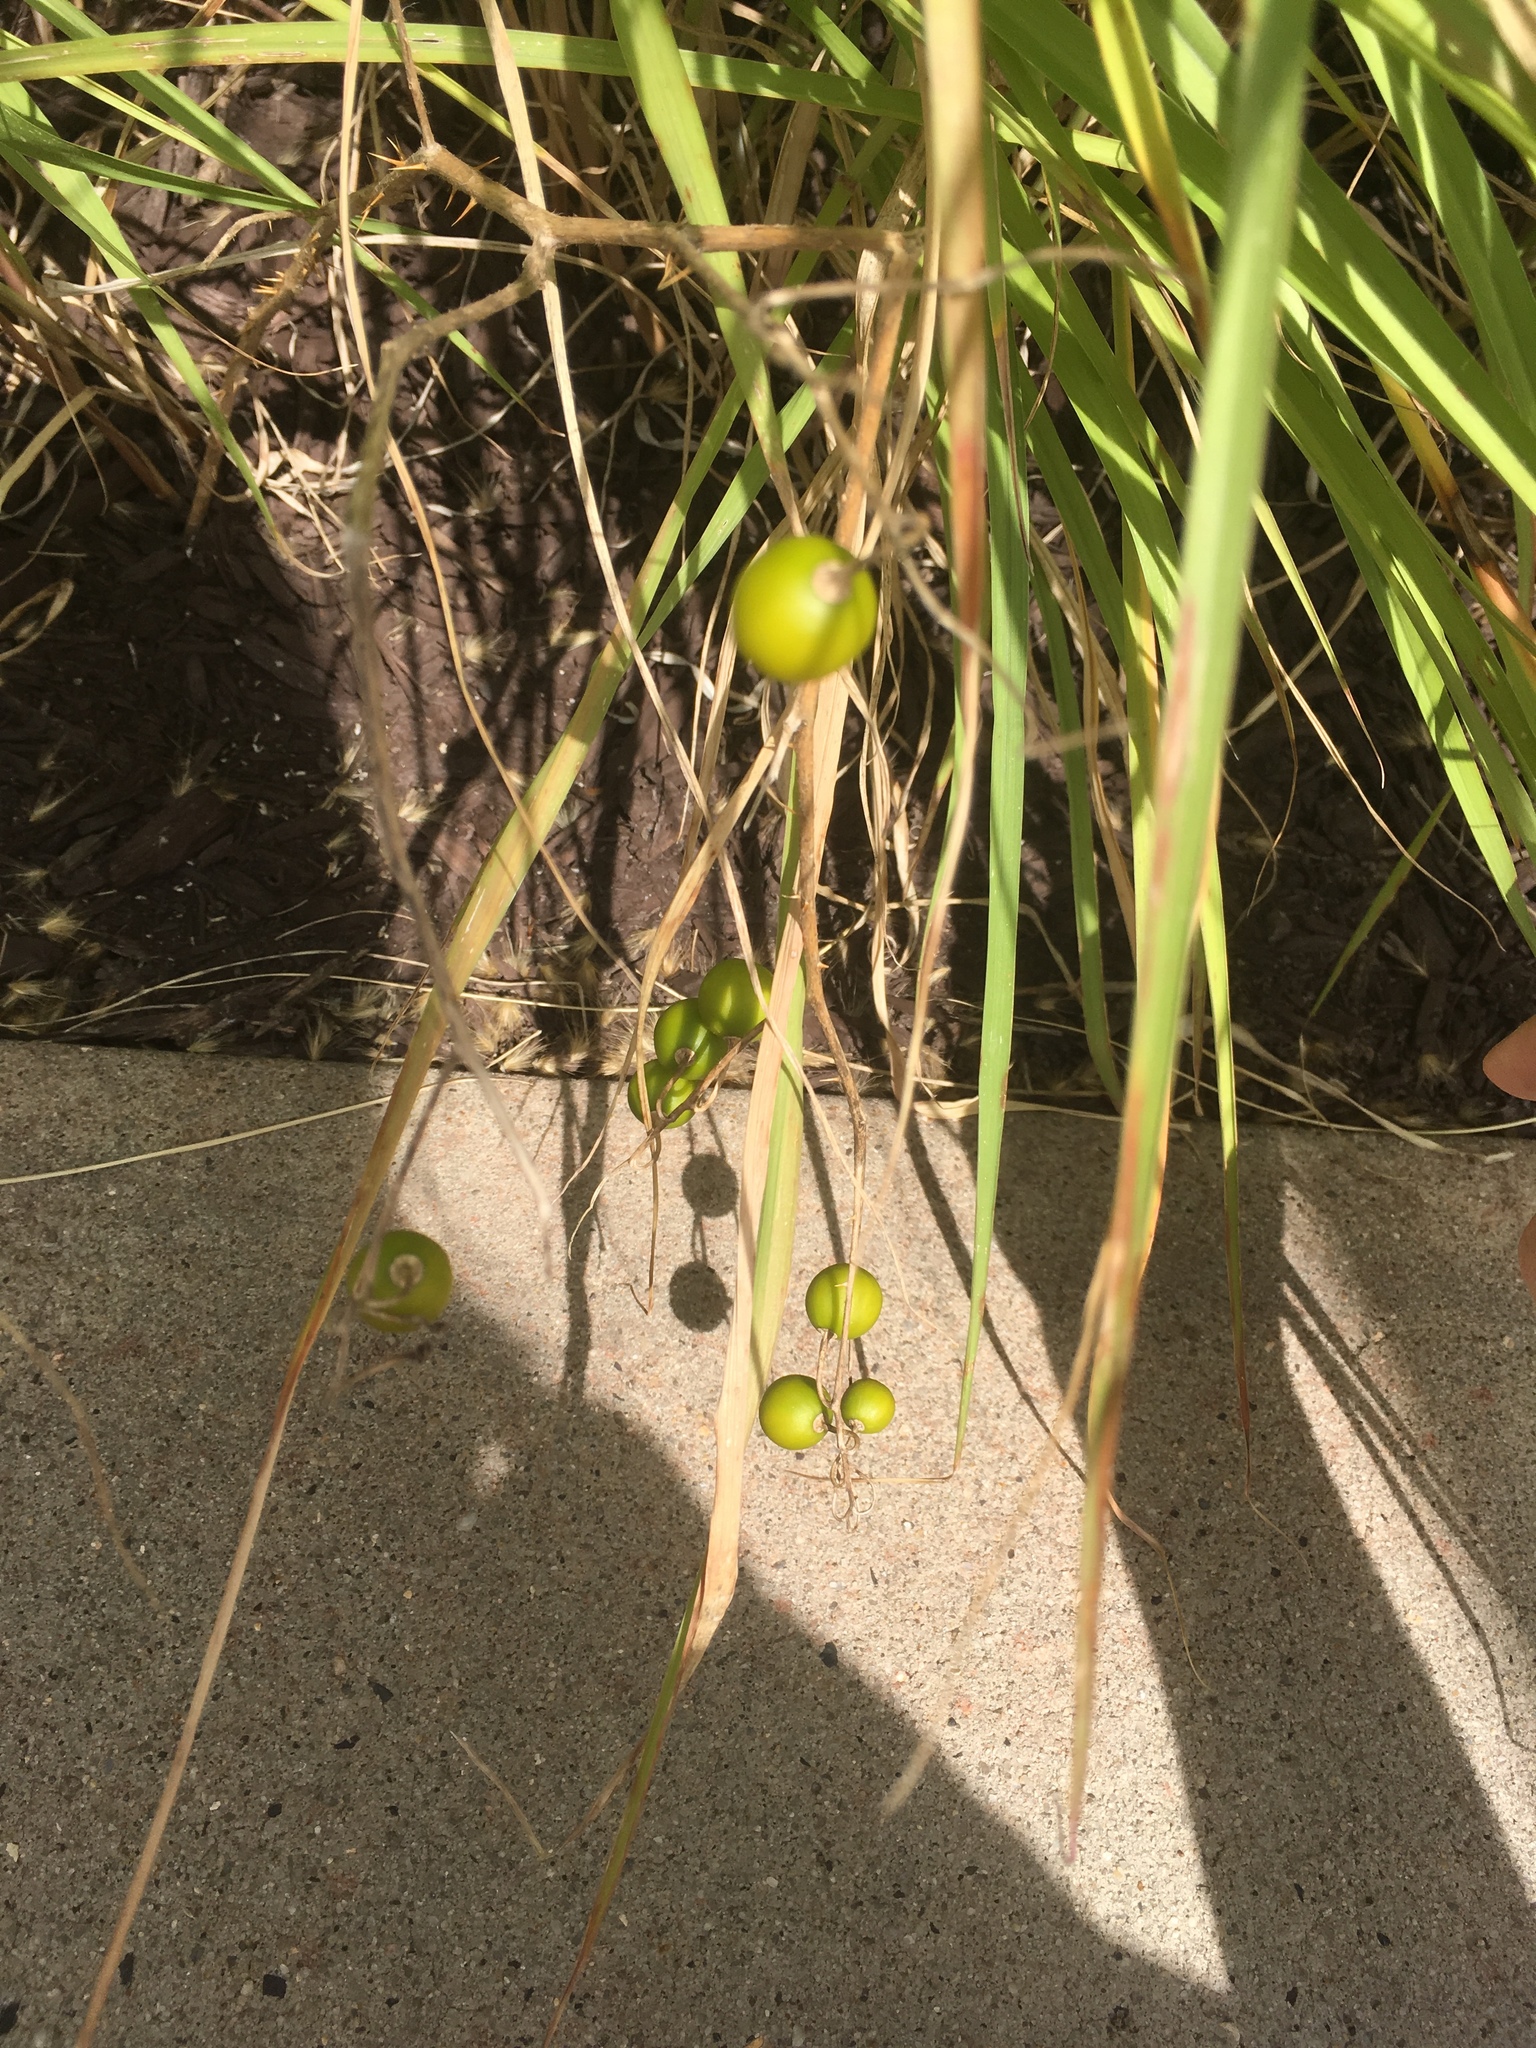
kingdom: Plantae
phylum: Tracheophyta
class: Magnoliopsida
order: Solanales
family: Solanaceae
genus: Solanum
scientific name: Solanum carolinense
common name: Horse-nettle
